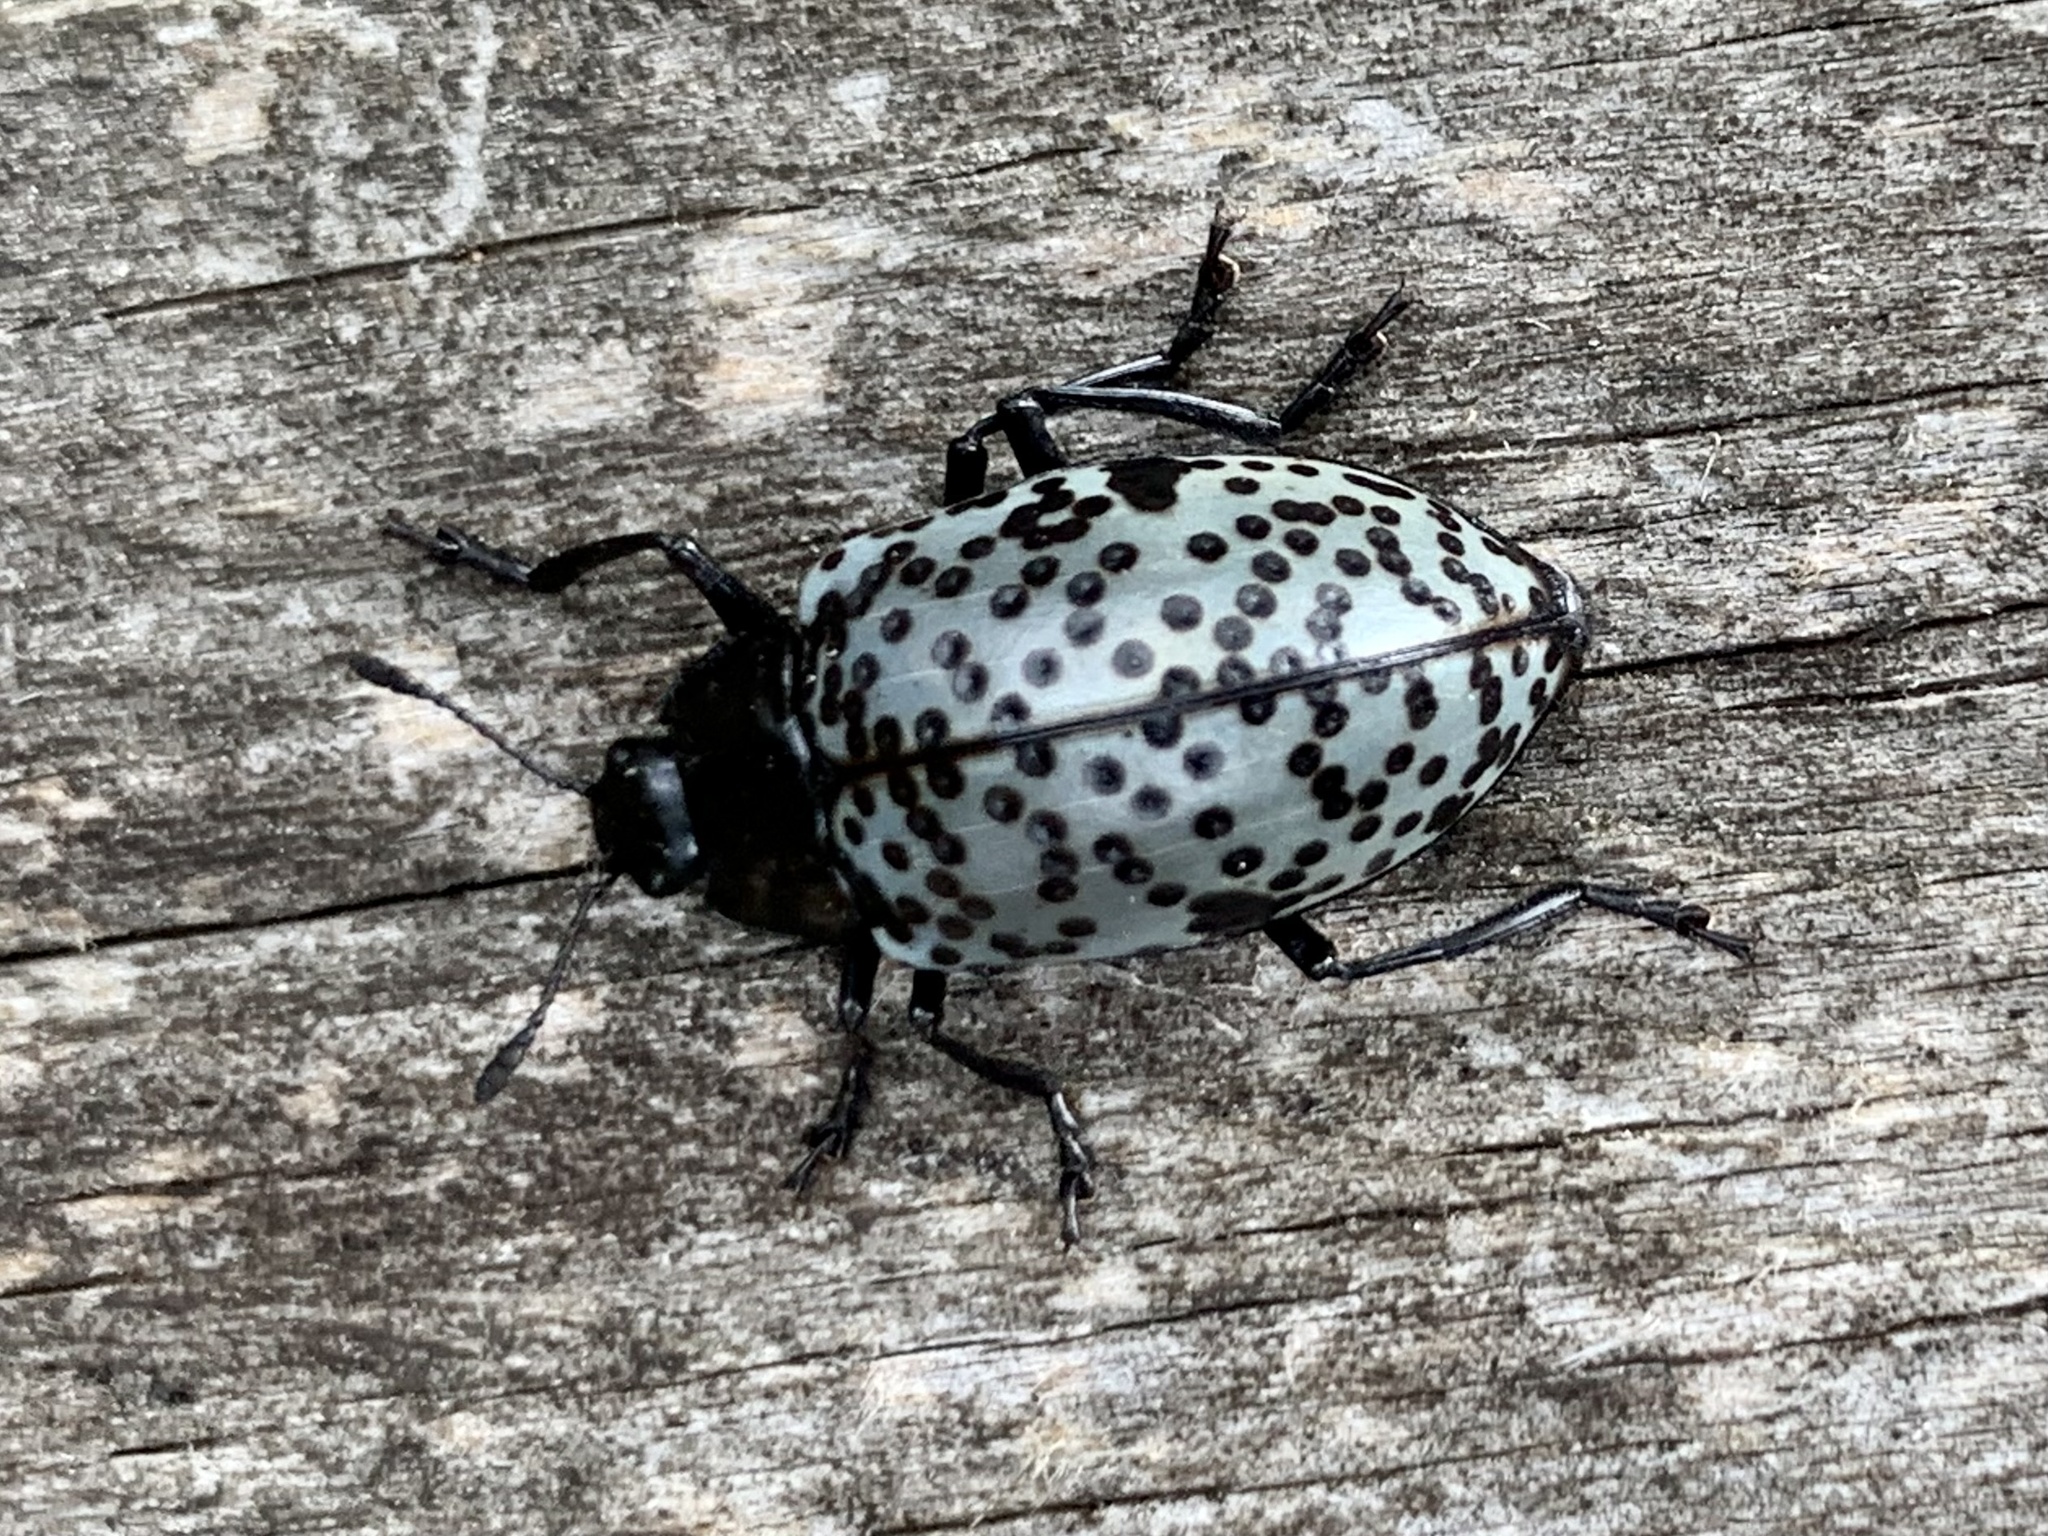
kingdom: Animalia
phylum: Arthropoda
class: Insecta
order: Coleoptera
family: Erotylidae
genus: Gibbifer
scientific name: Gibbifer californicus
